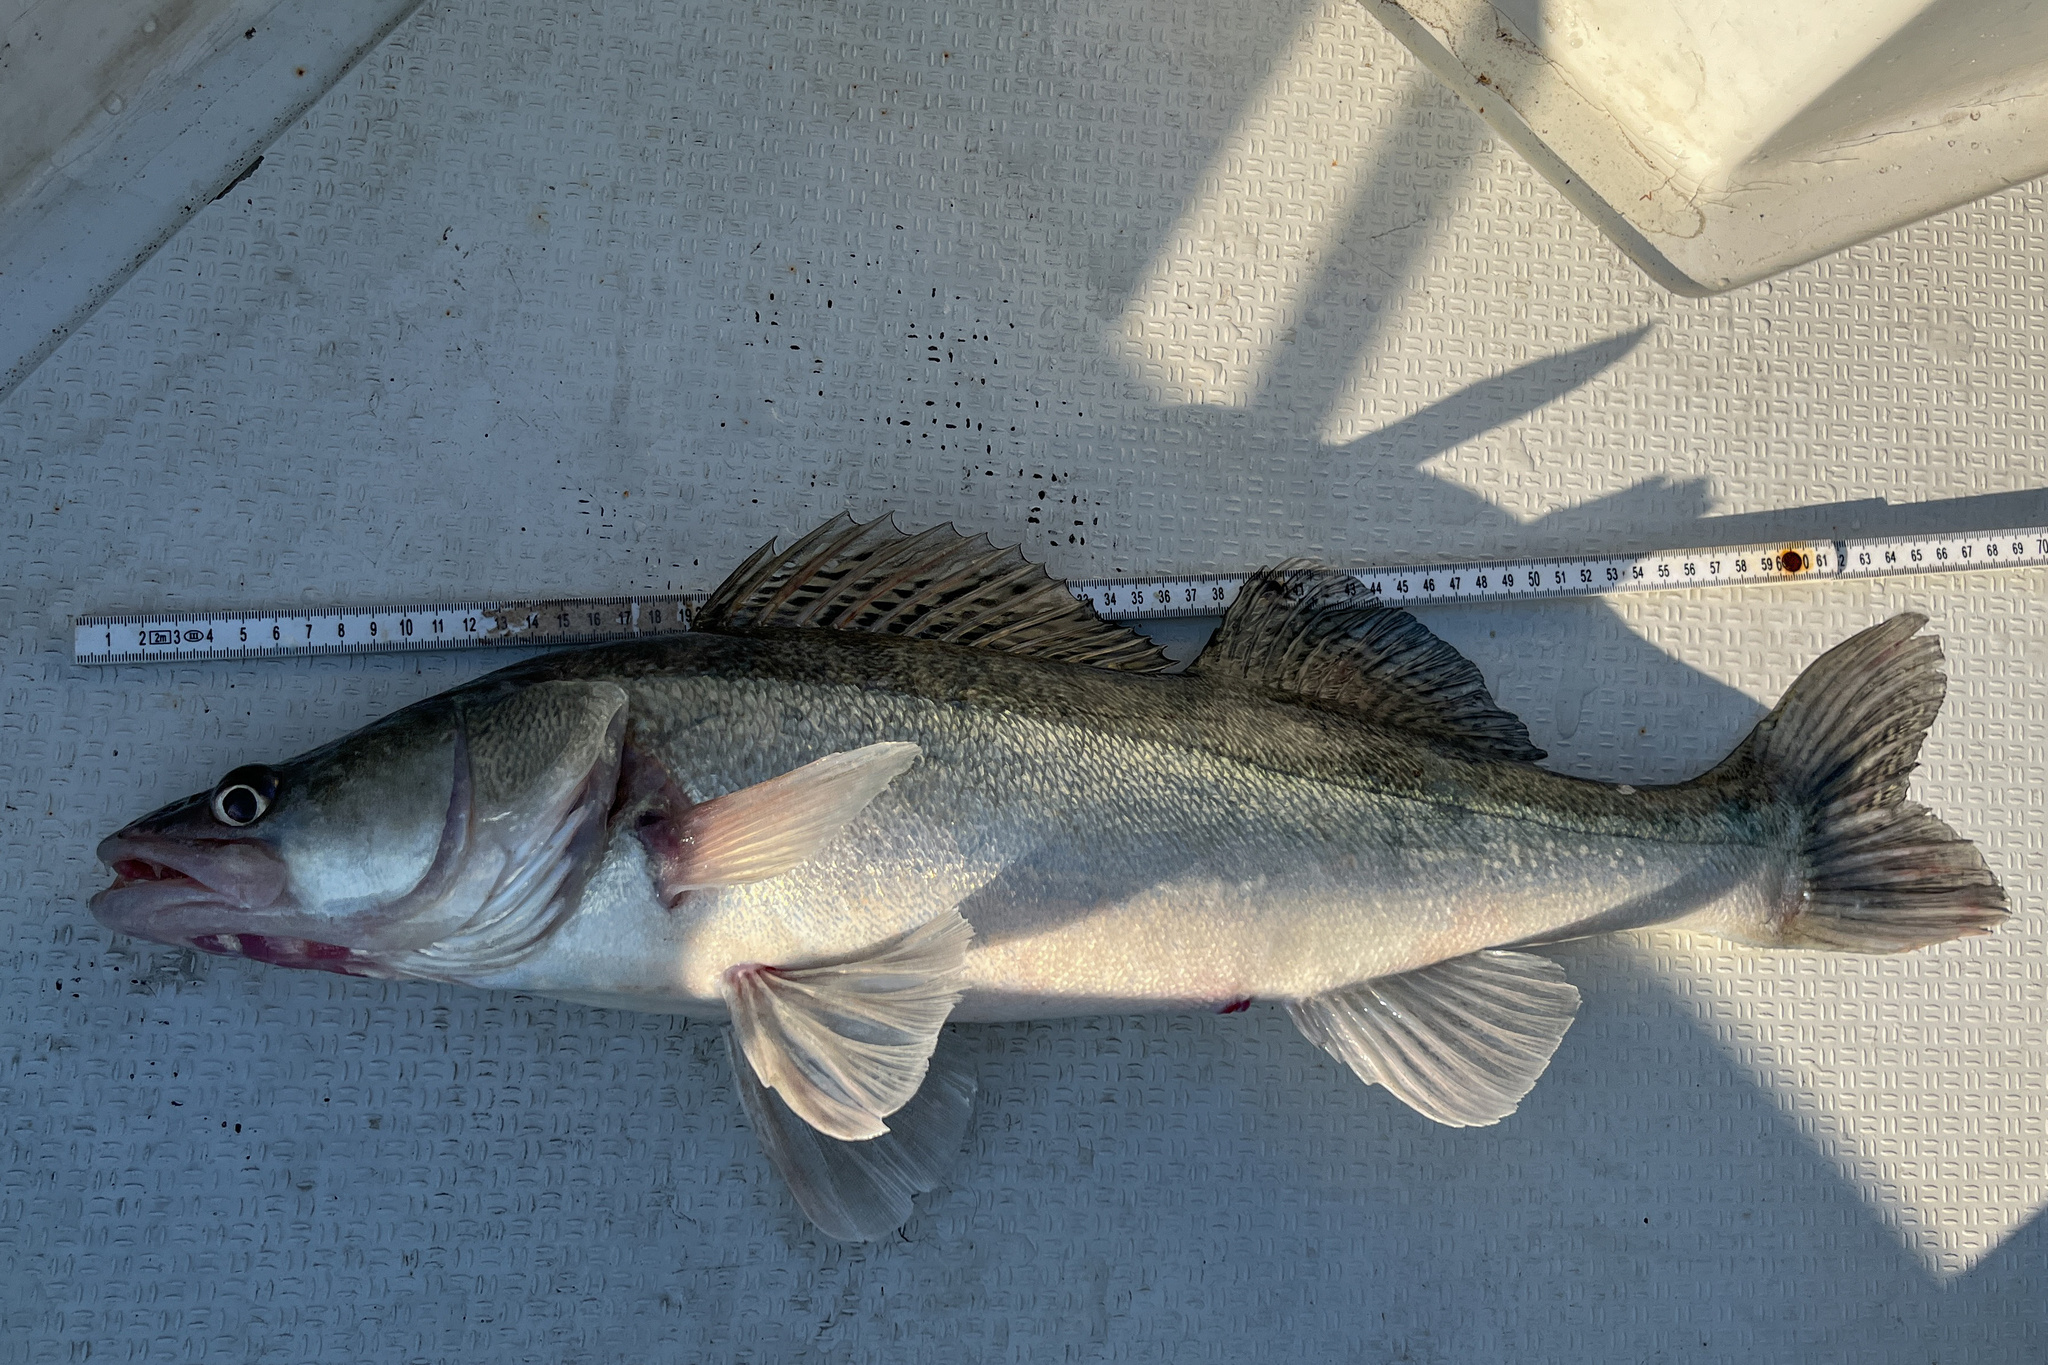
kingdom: Animalia
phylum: Chordata
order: Perciformes
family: Percidae
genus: Sander
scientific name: Sander lucioperca
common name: Pikeperch
